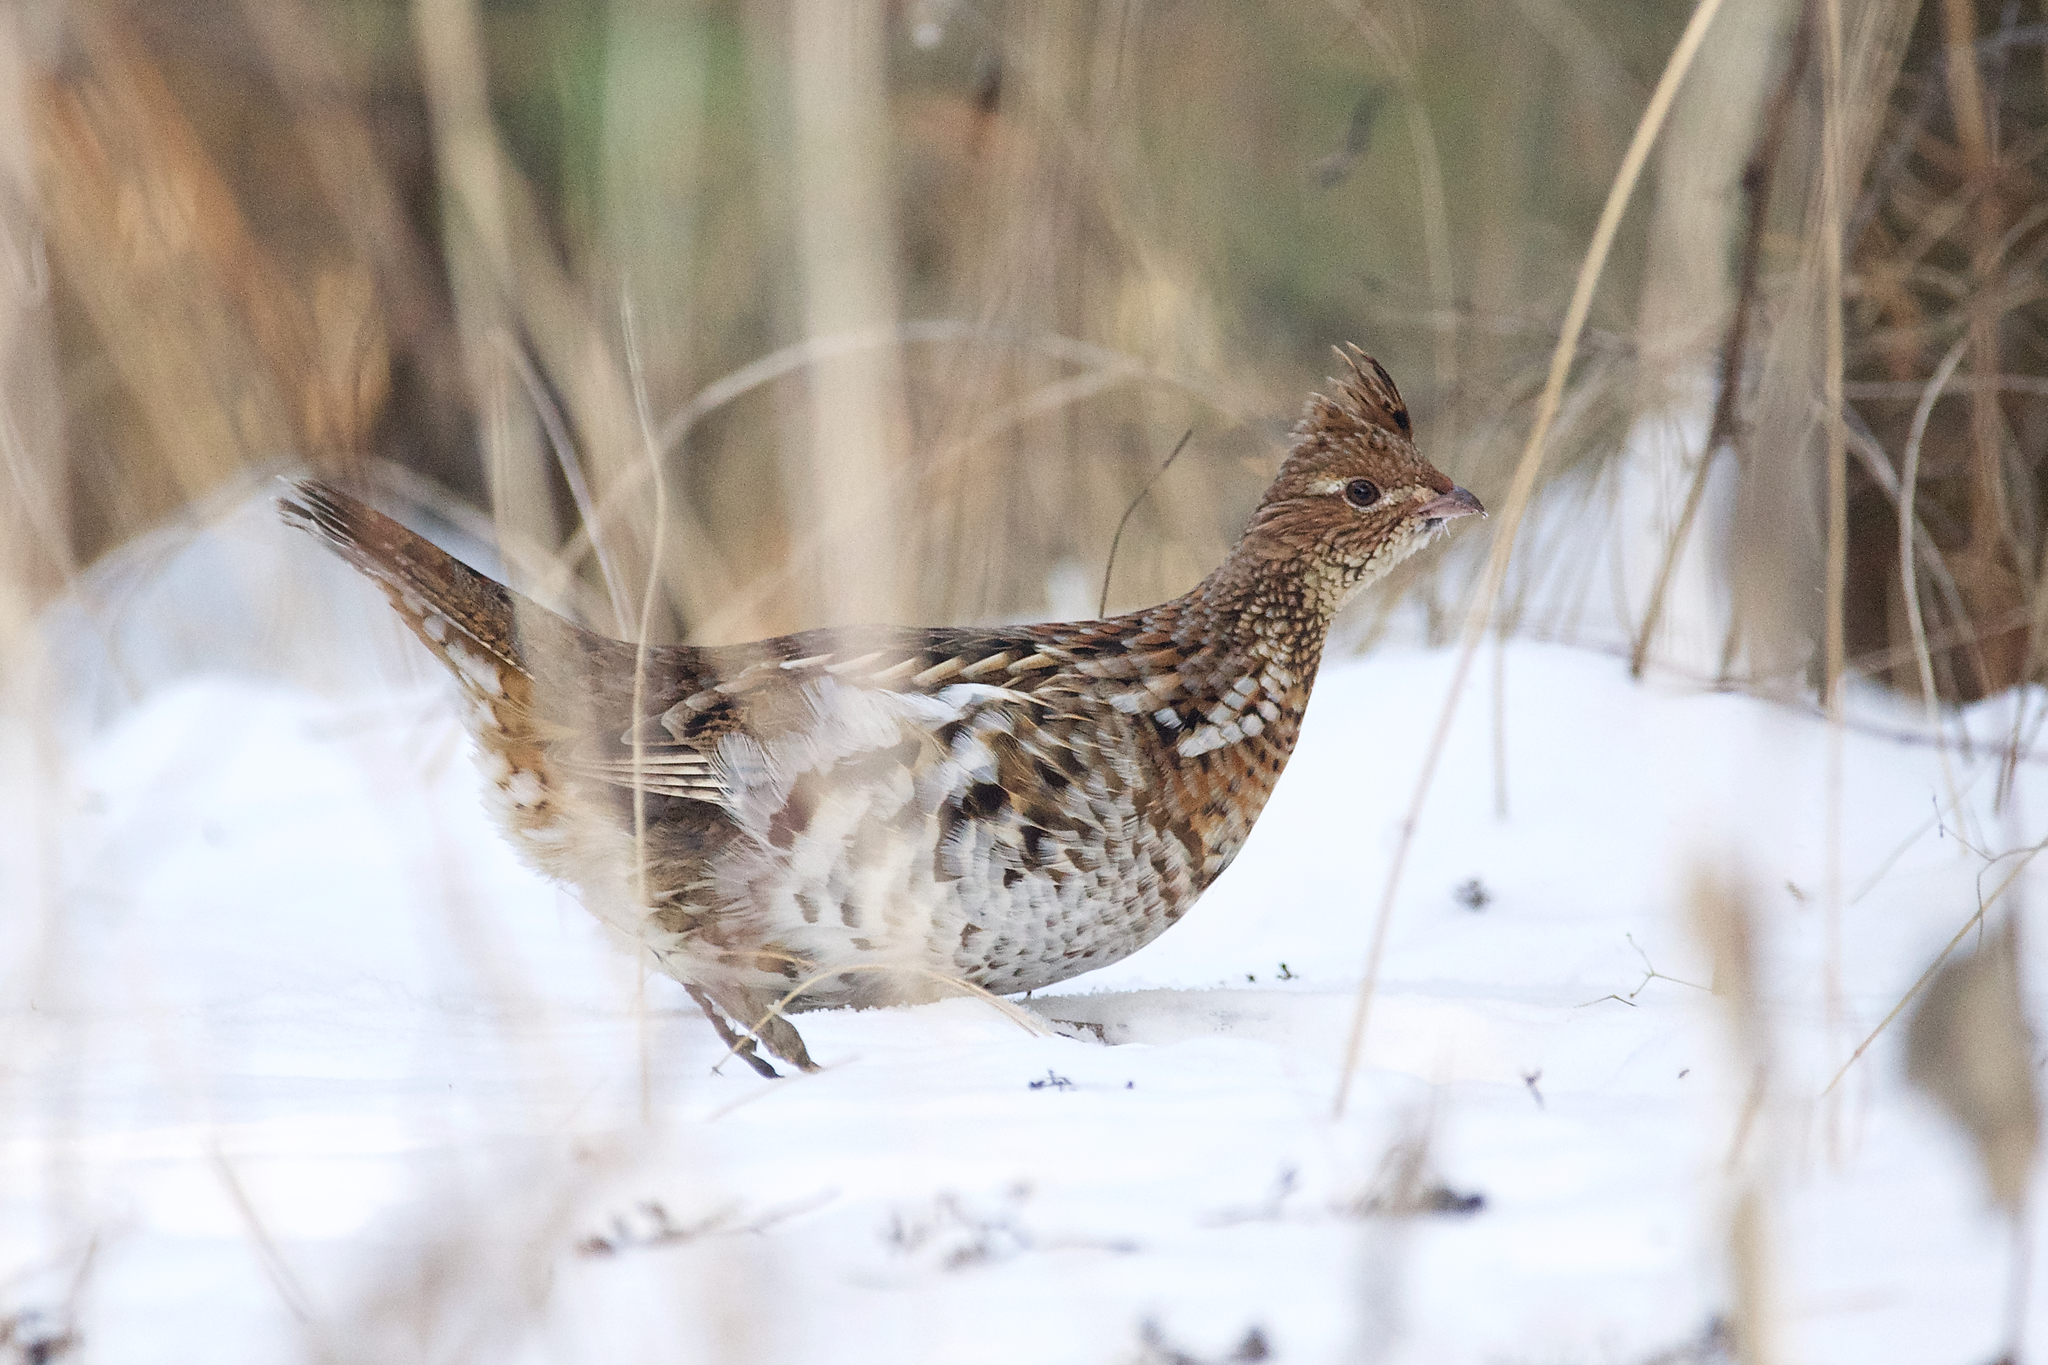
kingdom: Animalia
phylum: Chordata
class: Aves
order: Galliformes
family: Phasianidae
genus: Bonasa
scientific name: Bonasa umbellus
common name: Ruffed grouse
